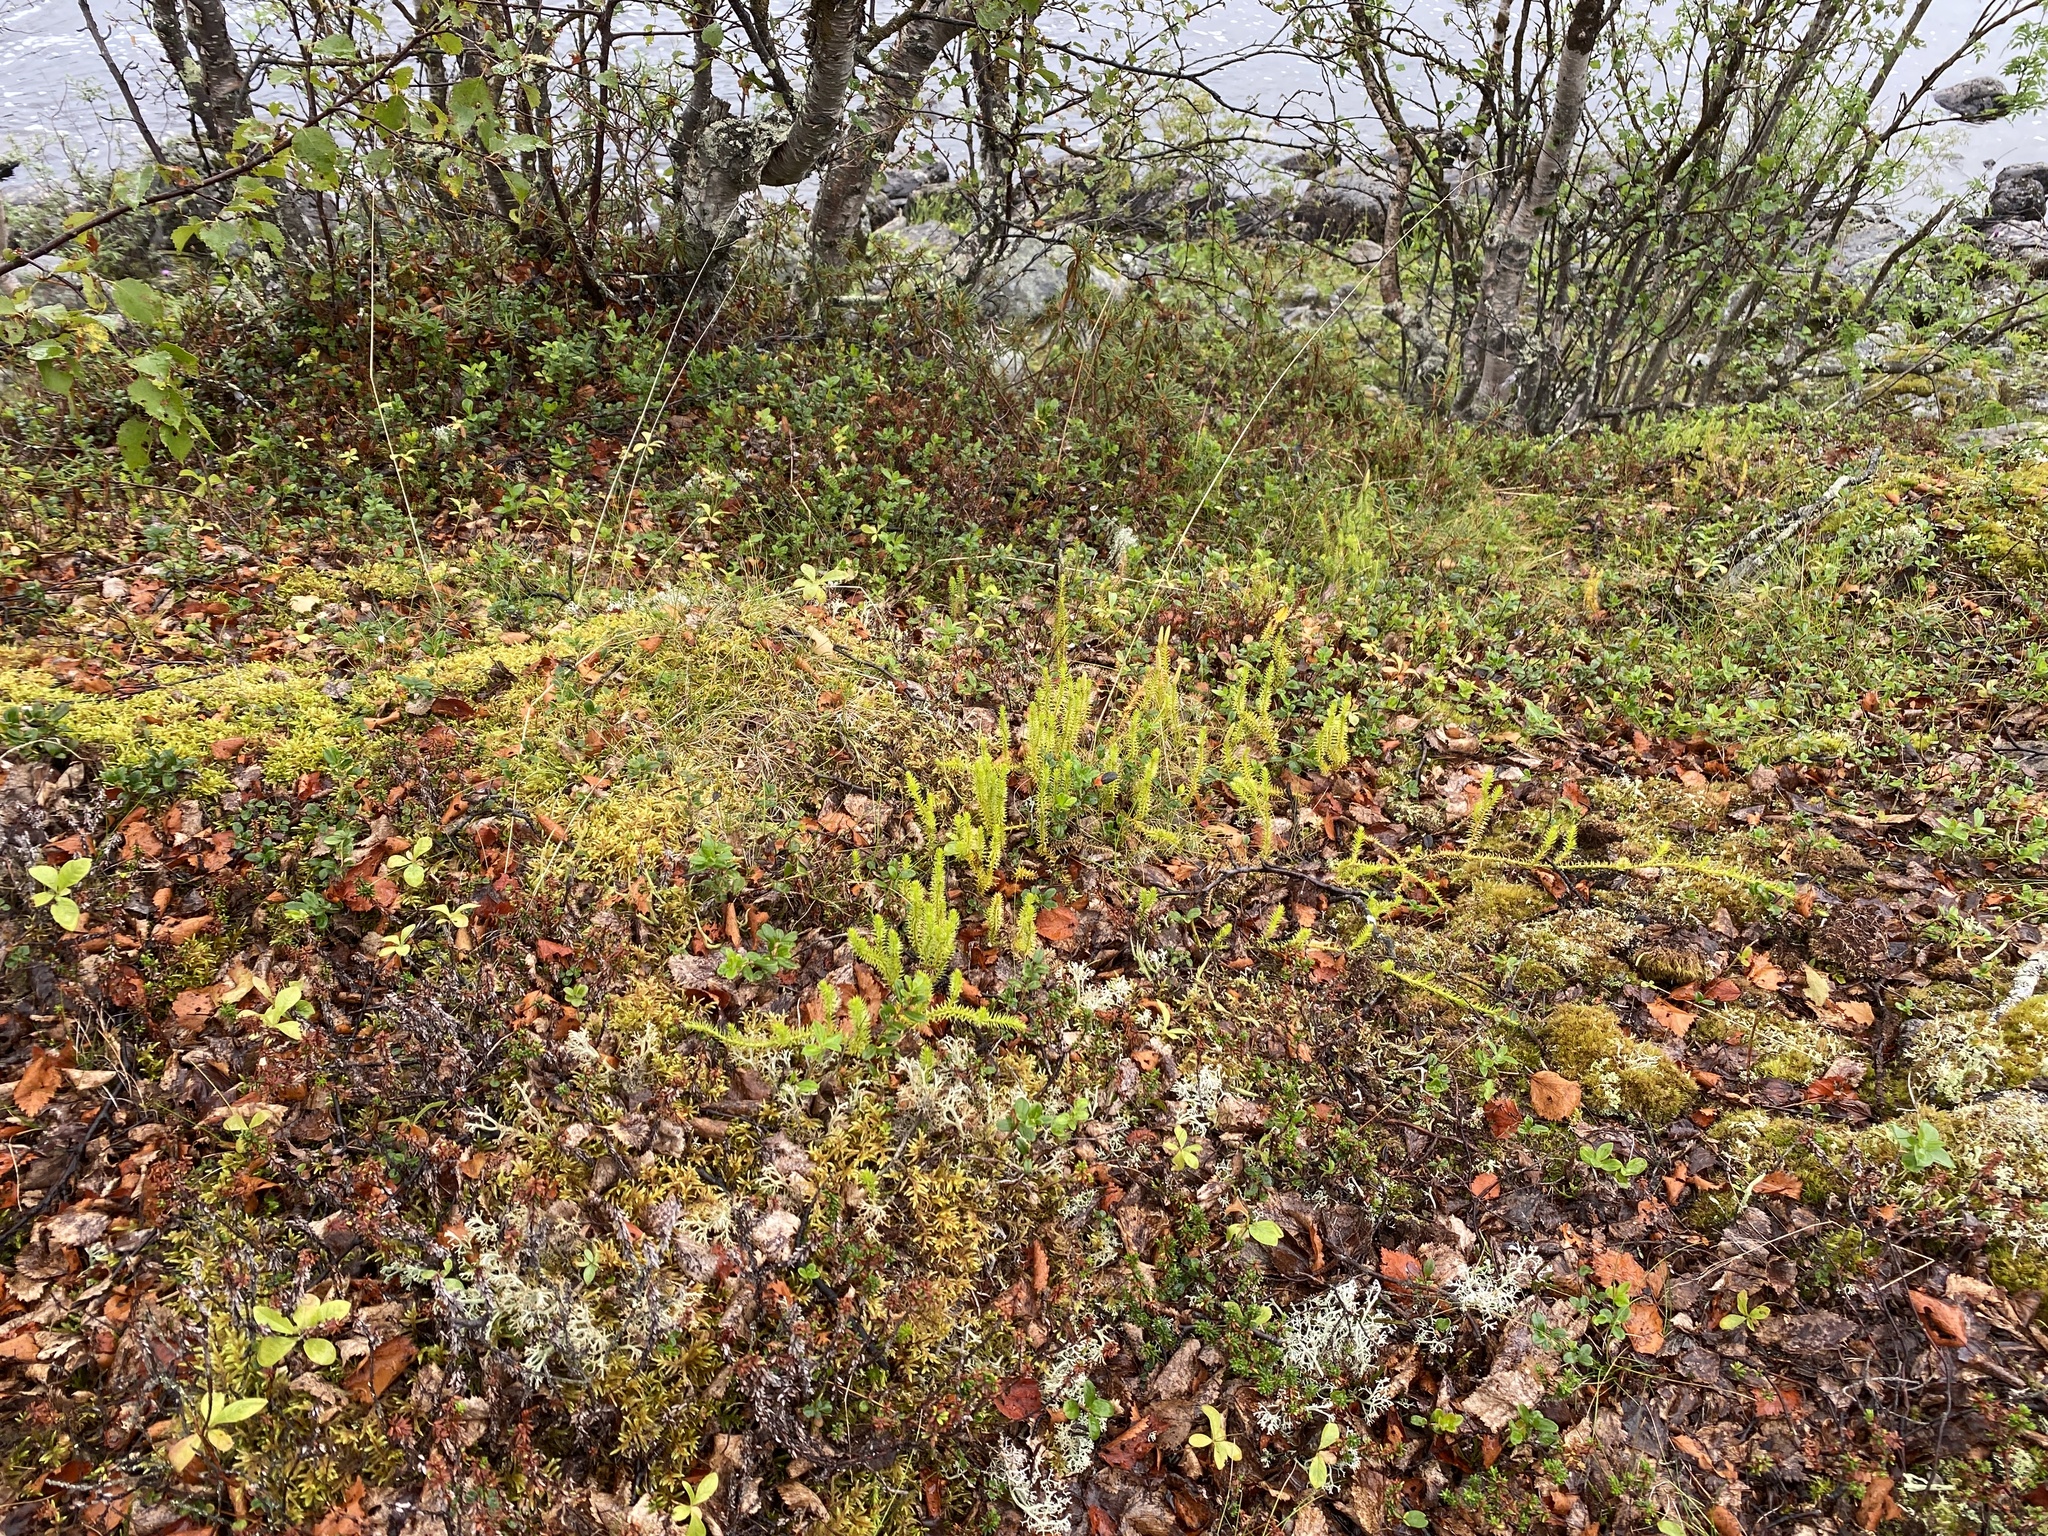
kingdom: Plantae
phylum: Tracheophyta
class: Lycopodiopsida
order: Lycopodiales
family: Lycopodiaceae
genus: Spinulum
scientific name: Spinulum annotinum
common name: Interrupted club-moss
